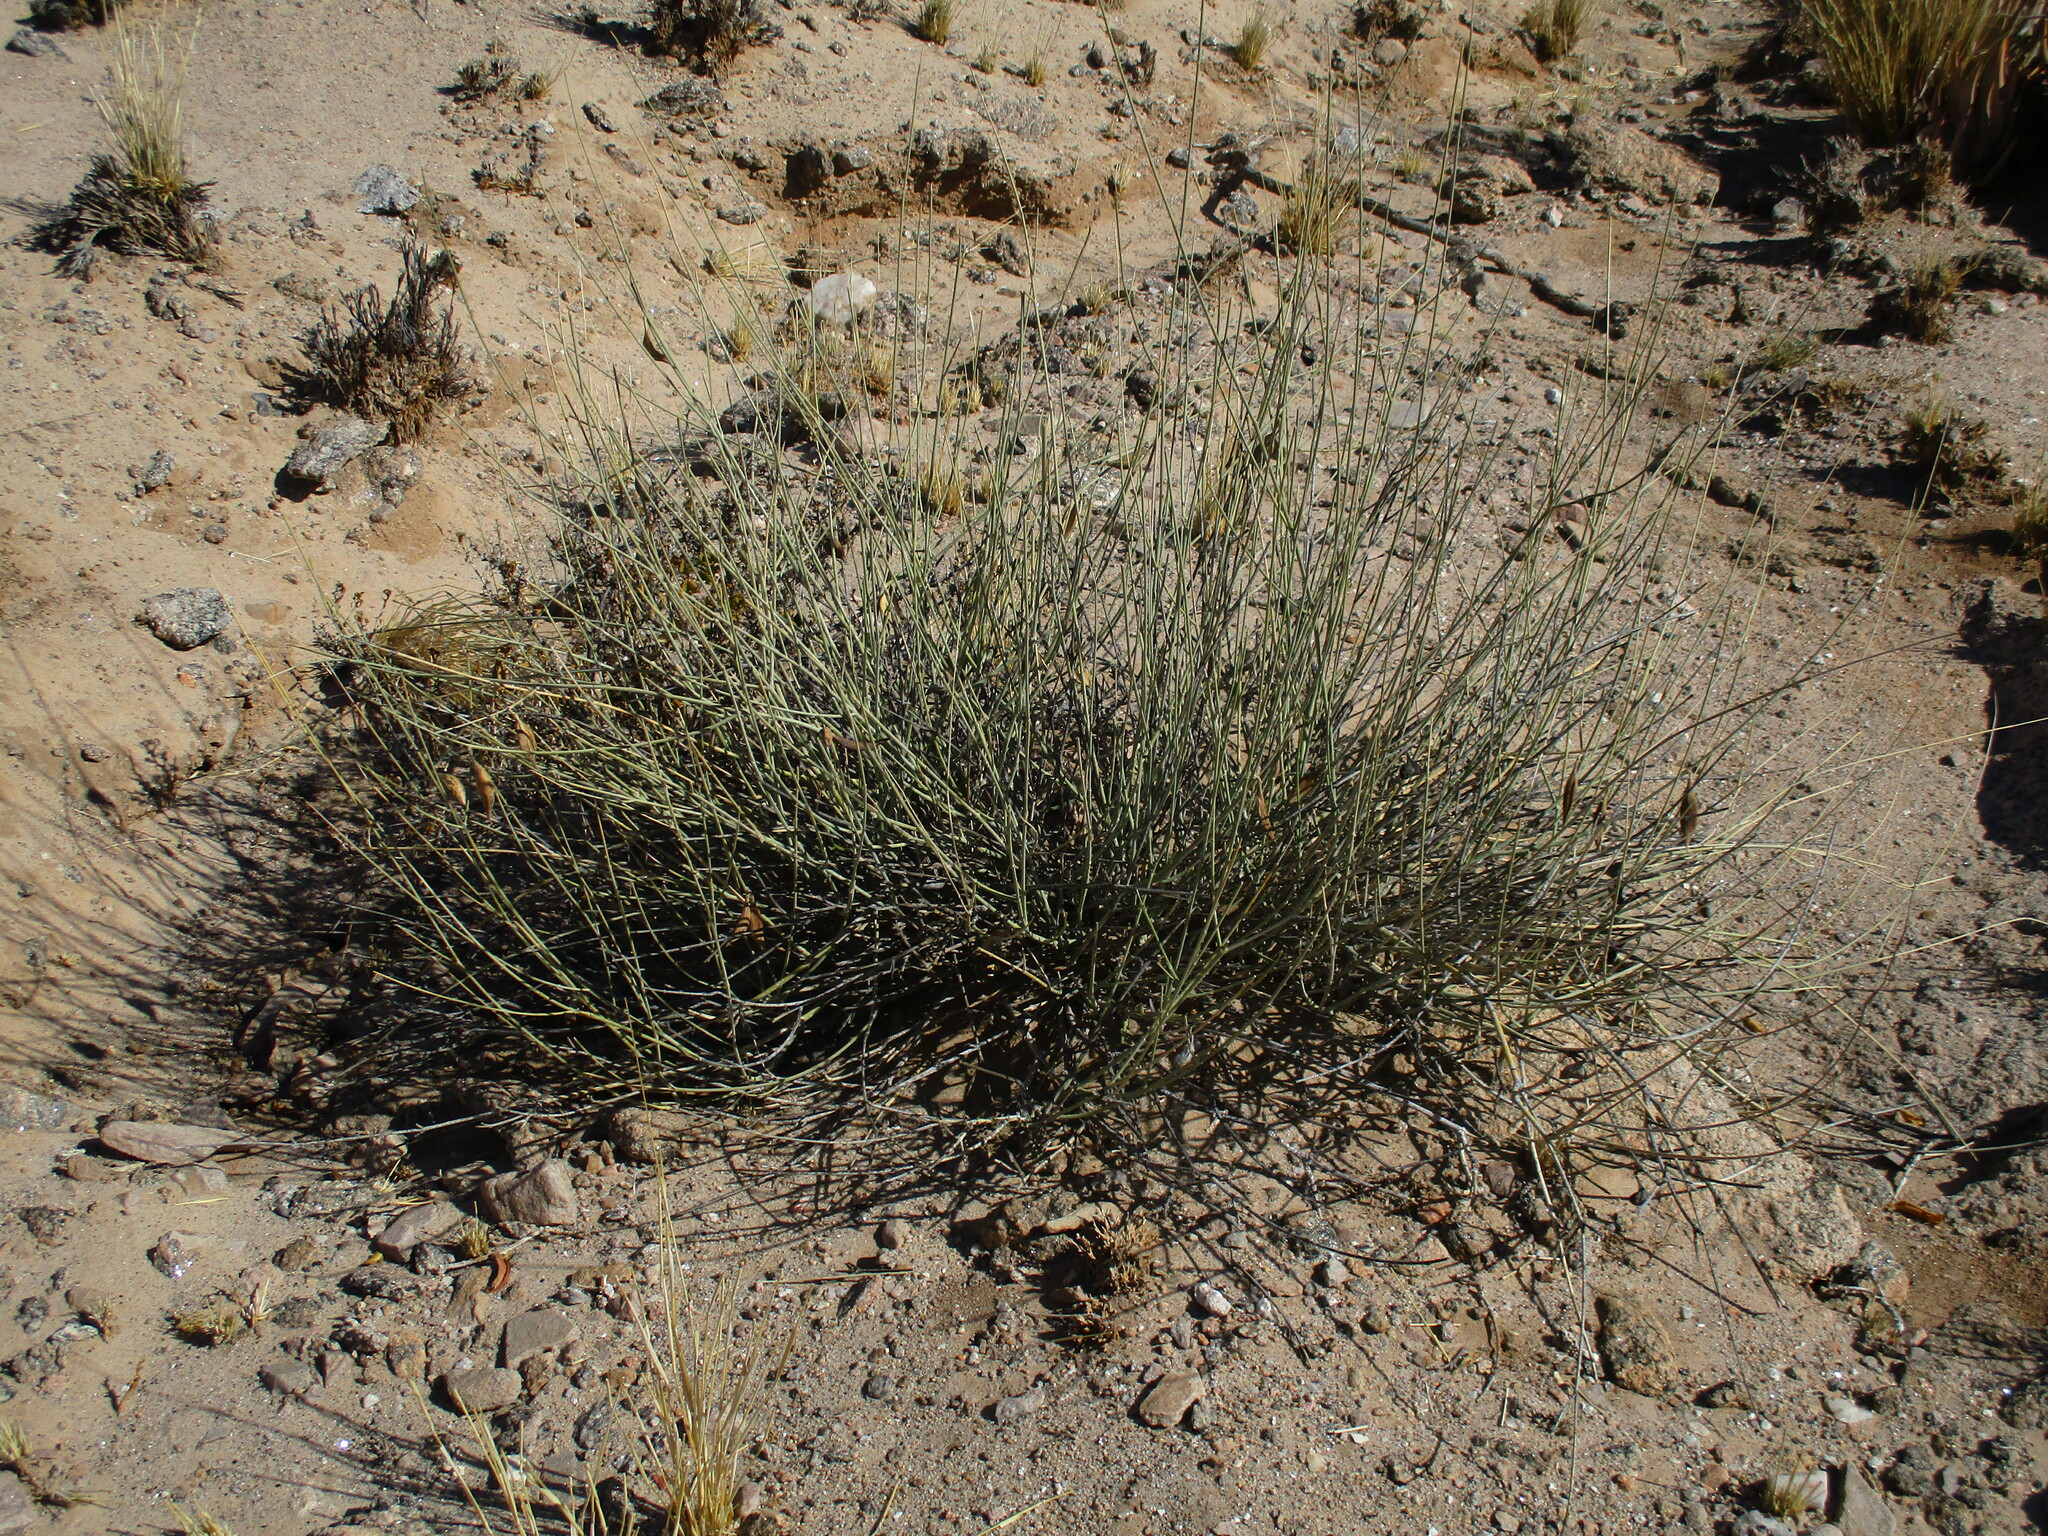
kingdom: Plantae
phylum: Tracheophyta
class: Magnoliopsida
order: Gentianales
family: Apocynaceae
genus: Orthanthera
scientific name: Orthanthera albida
